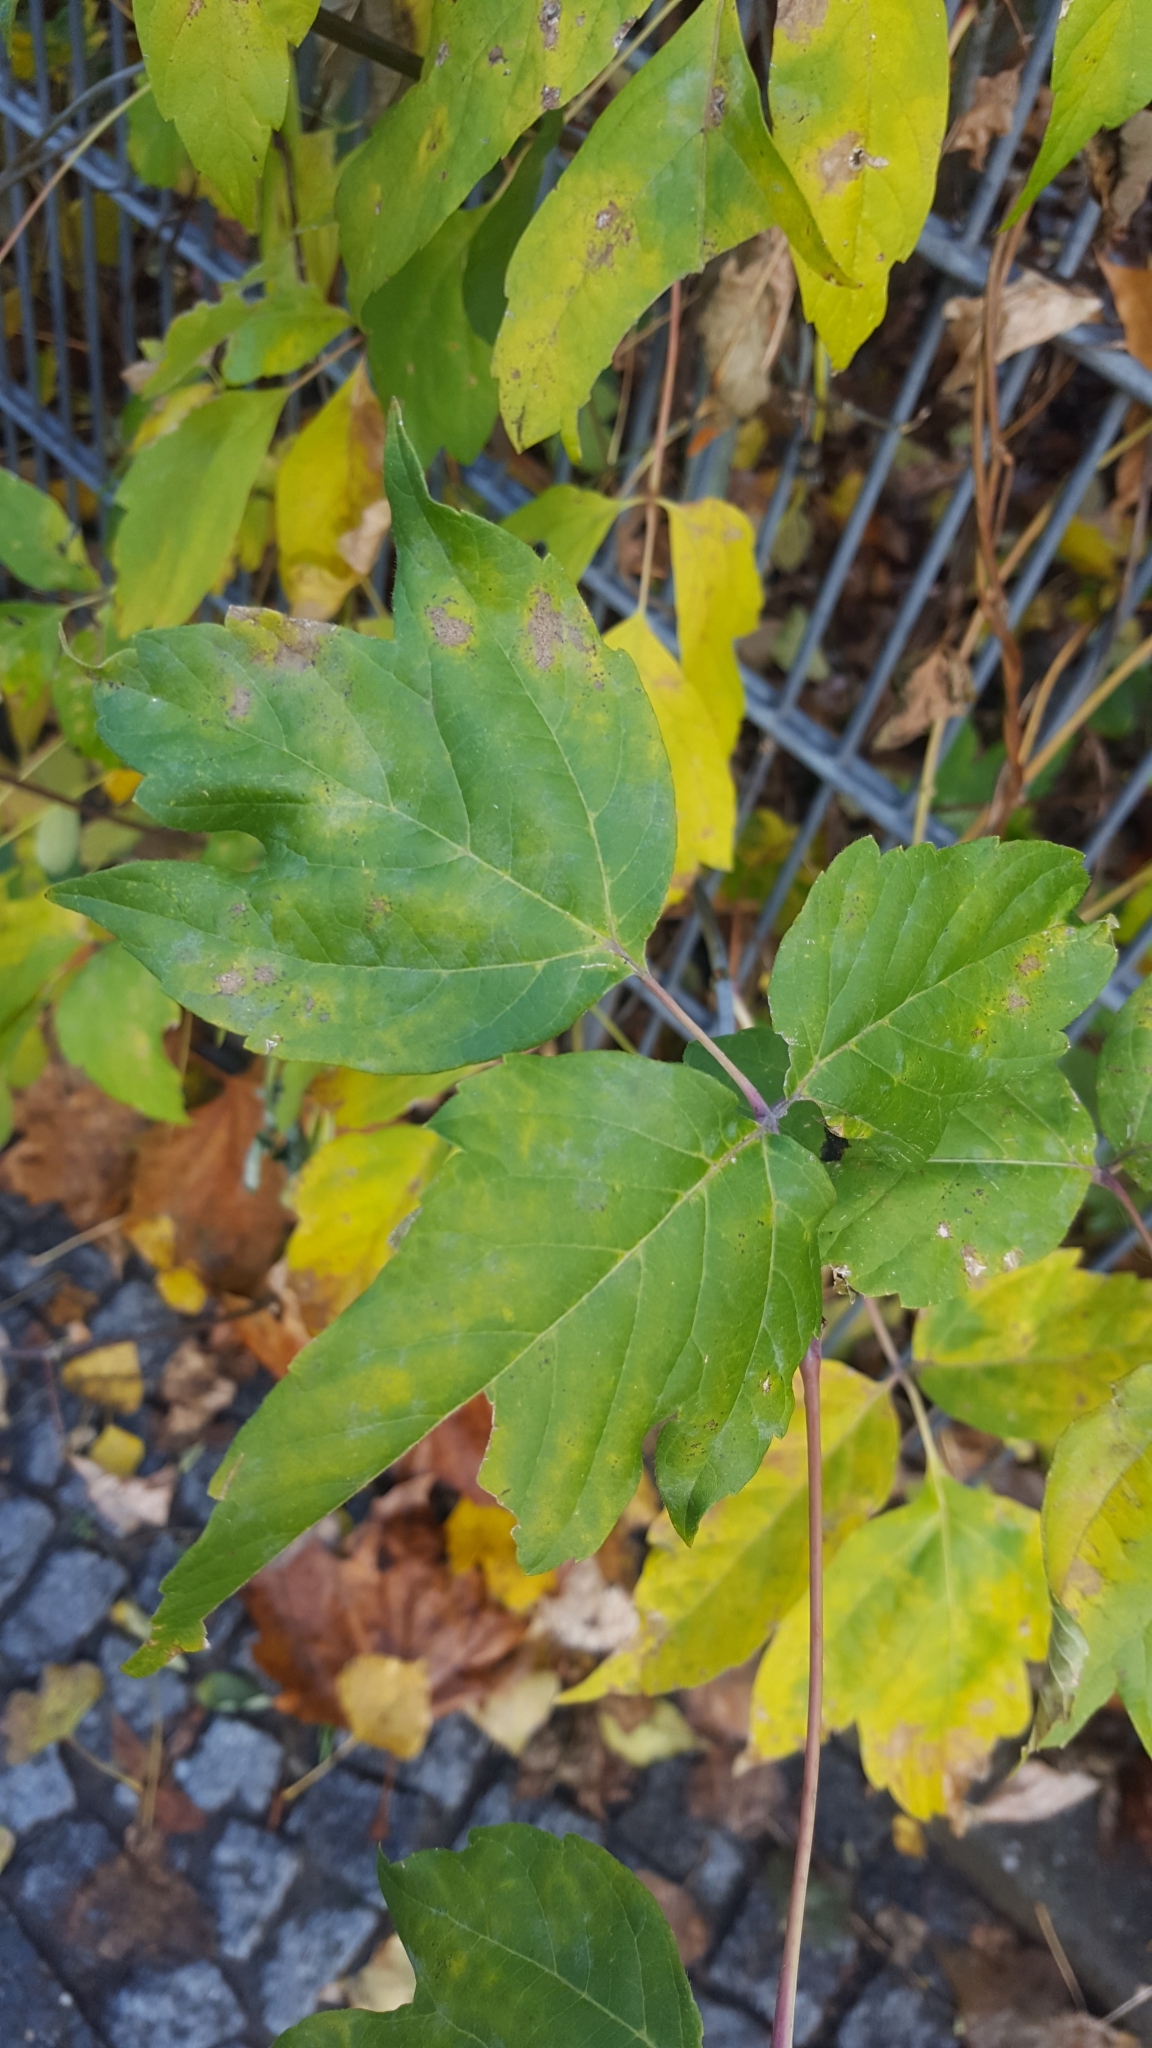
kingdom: Plantae
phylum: Tracheophyta
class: Magnoliopsida
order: Sapindales
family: Sapindaceae
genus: Acer
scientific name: Acer negundo
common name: Ashleaf maple
